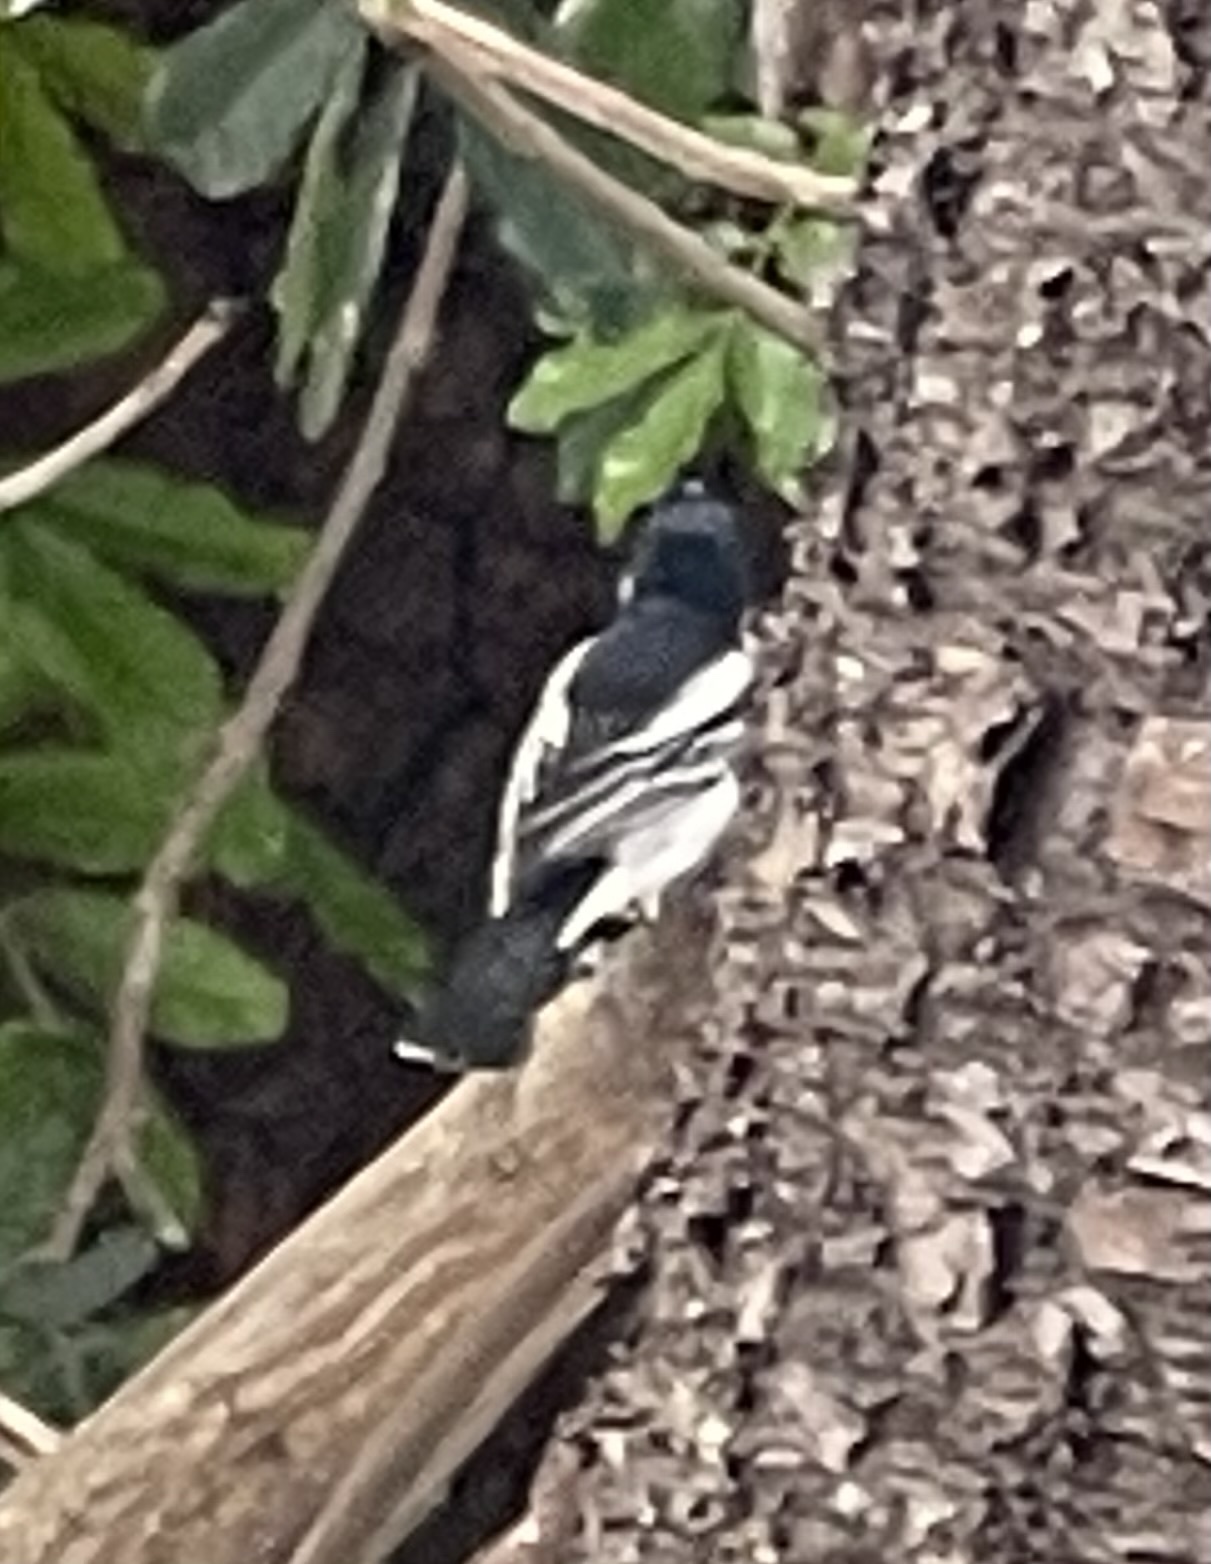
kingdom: Animalia
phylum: Chordata
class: Aves
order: Passeriformes
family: Malaconotidae
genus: Dryoscopus
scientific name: Dryoscopus cubla
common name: Black-backed puffback
